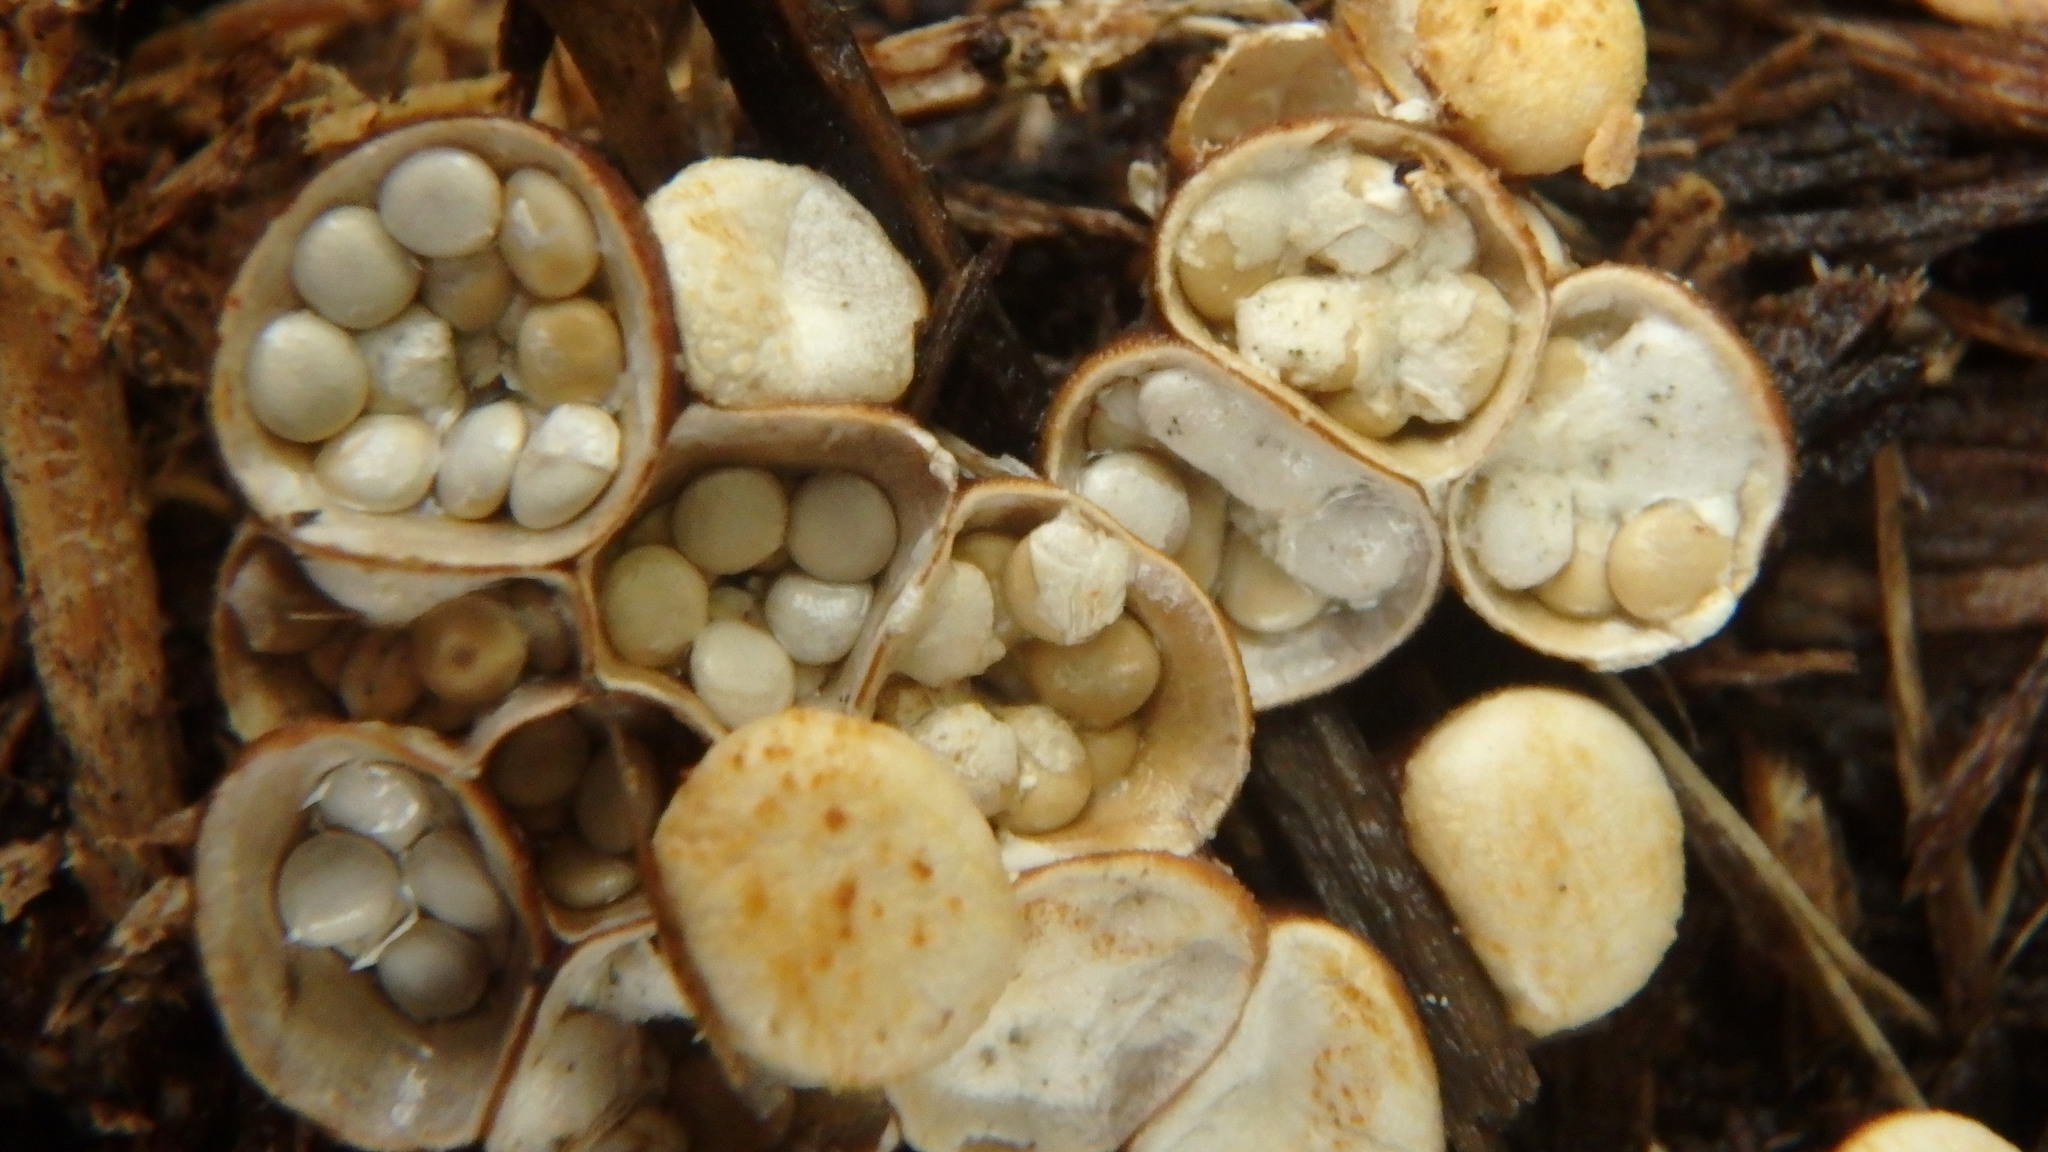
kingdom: Fungi
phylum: Basidiomycota
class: Agaricomycetes
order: Agaricales
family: Nidulariaceae
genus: Crucibulum
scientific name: Crucibulum laeve
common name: Common bird's nest
